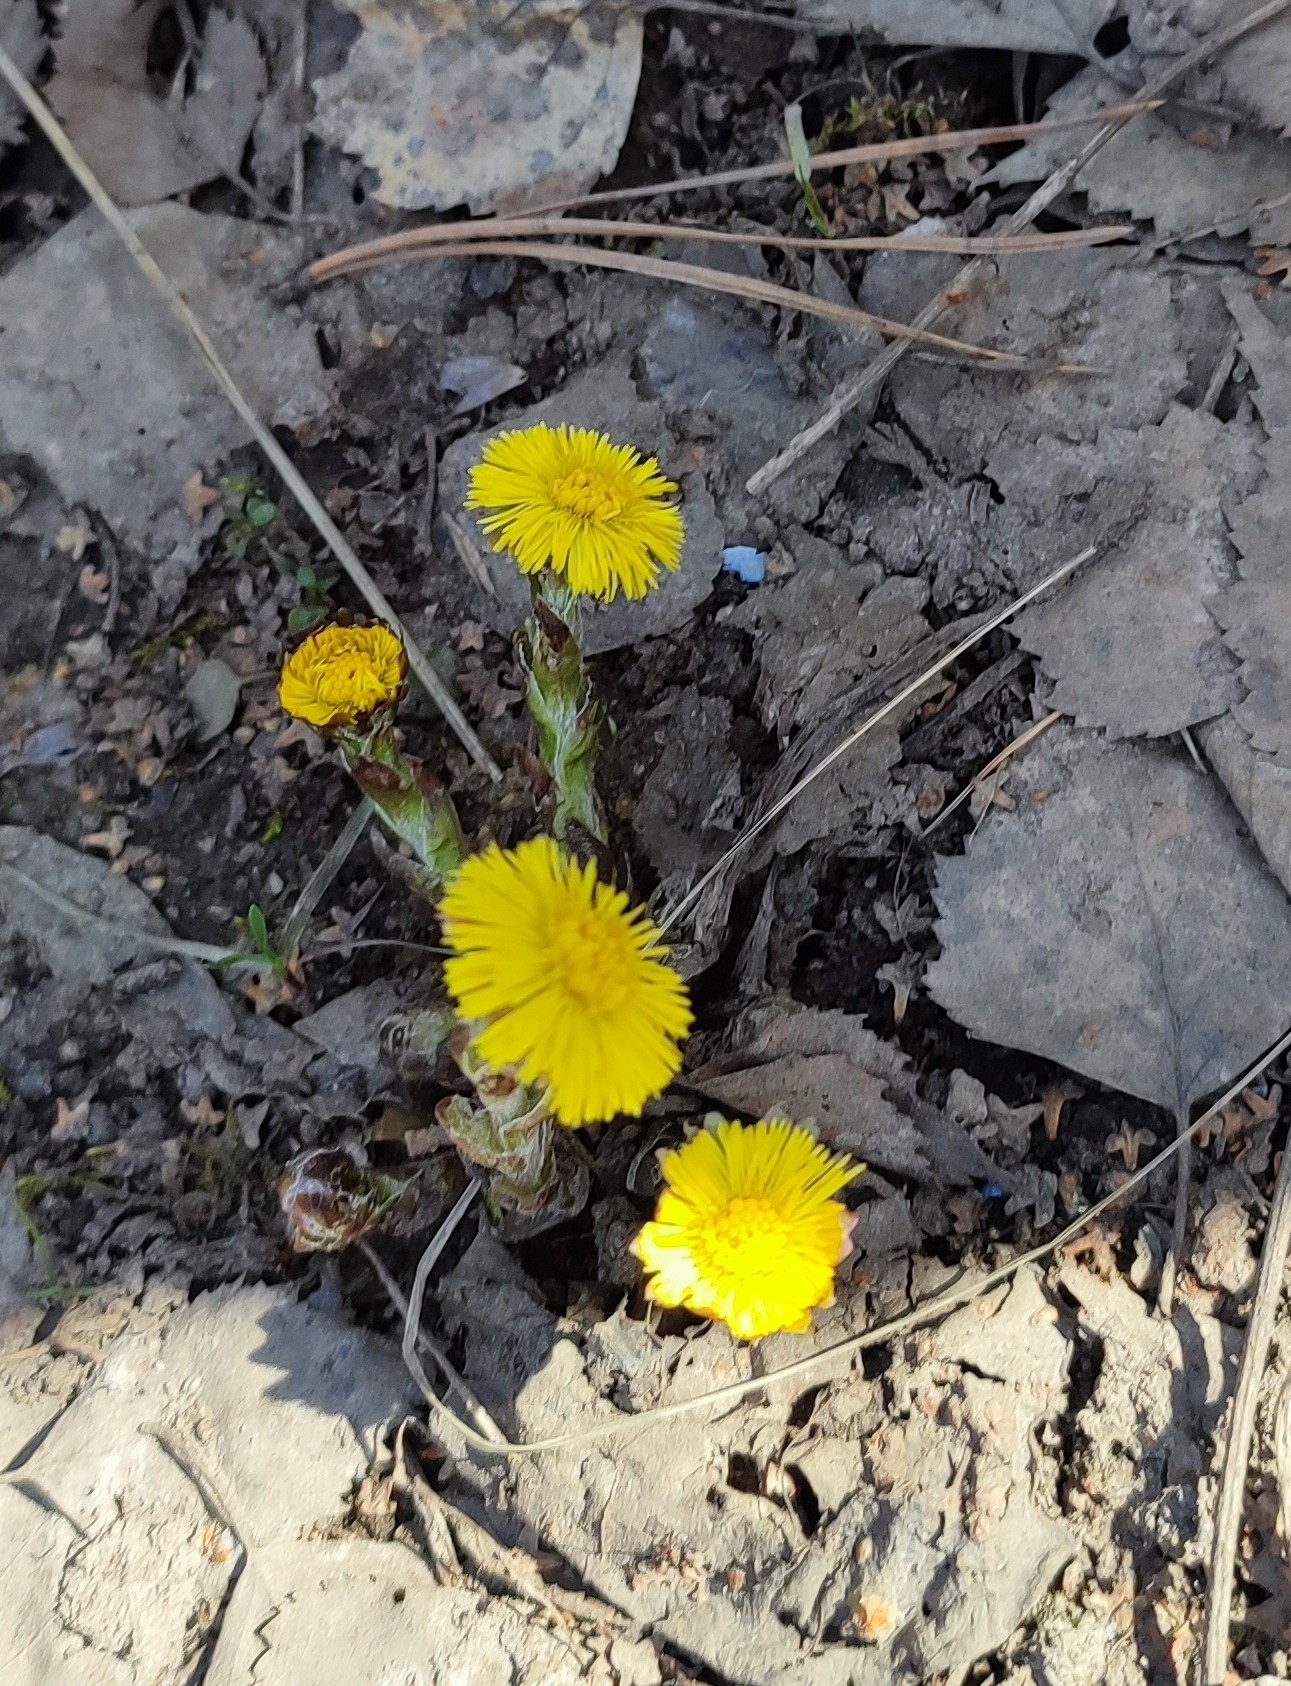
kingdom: Plantae
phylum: Tracheophyta
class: Magnoliopsida
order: Asterales
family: Asteraceae
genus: Tussilago
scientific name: Tussilago farfara
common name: Coltsfoot
